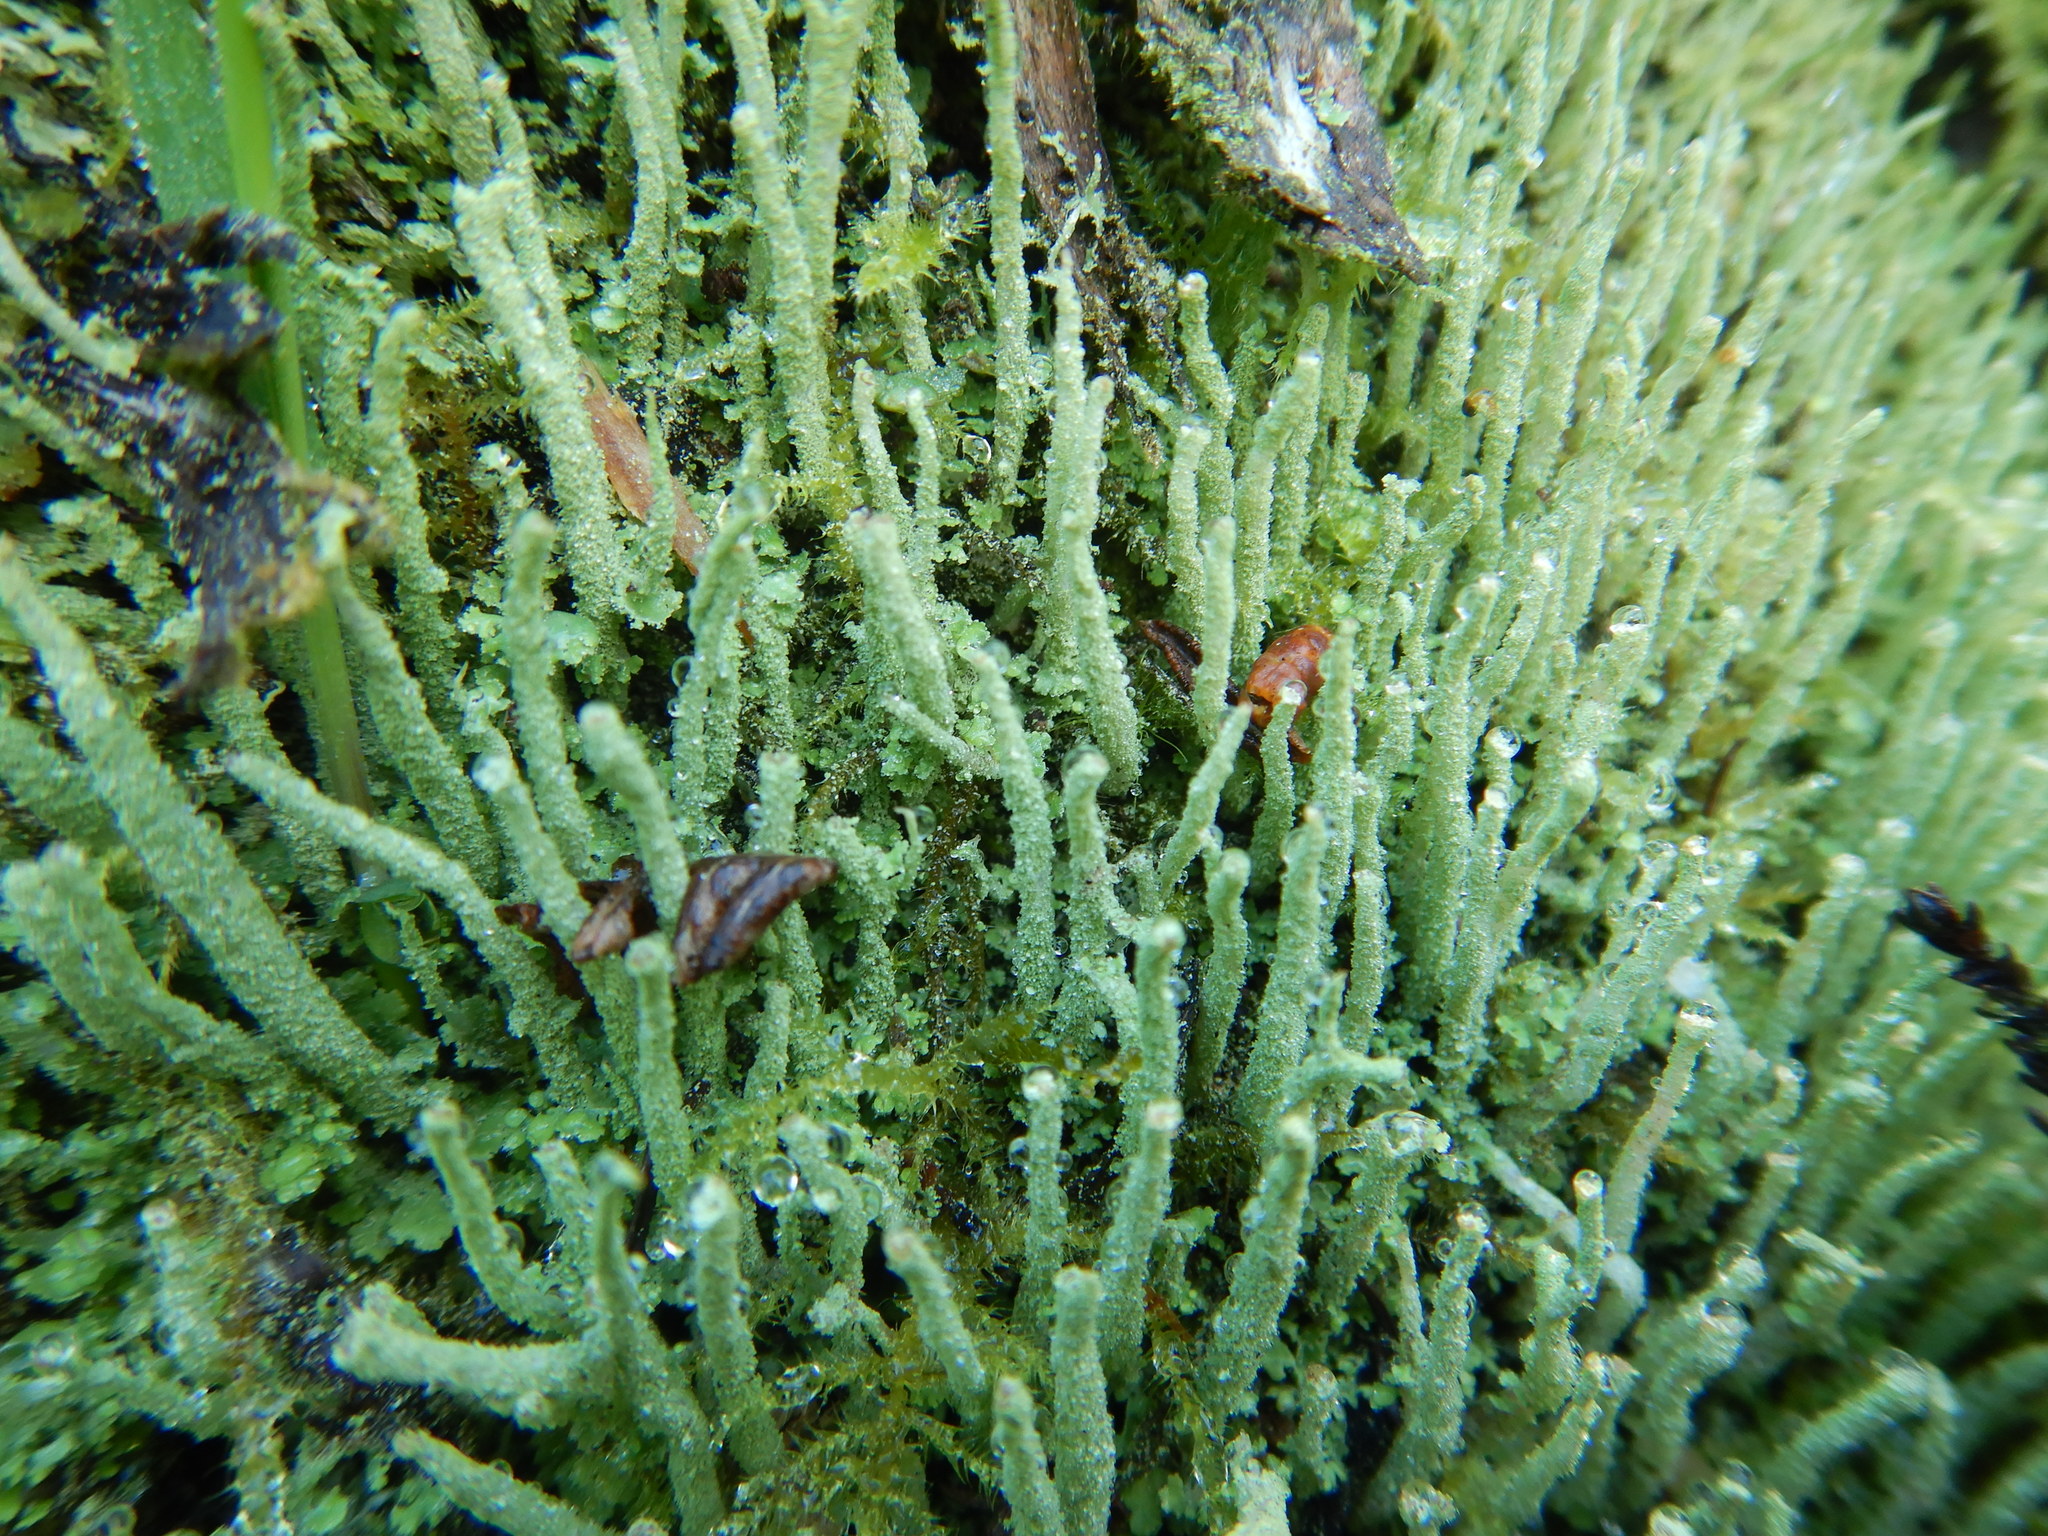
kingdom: Fungi
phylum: Ascomycota
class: Lecanoromycetes
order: Lecanorales
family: Cladoniaceae
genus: Cladonia
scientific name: Cladonia coniocraea
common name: Common powderhorn
